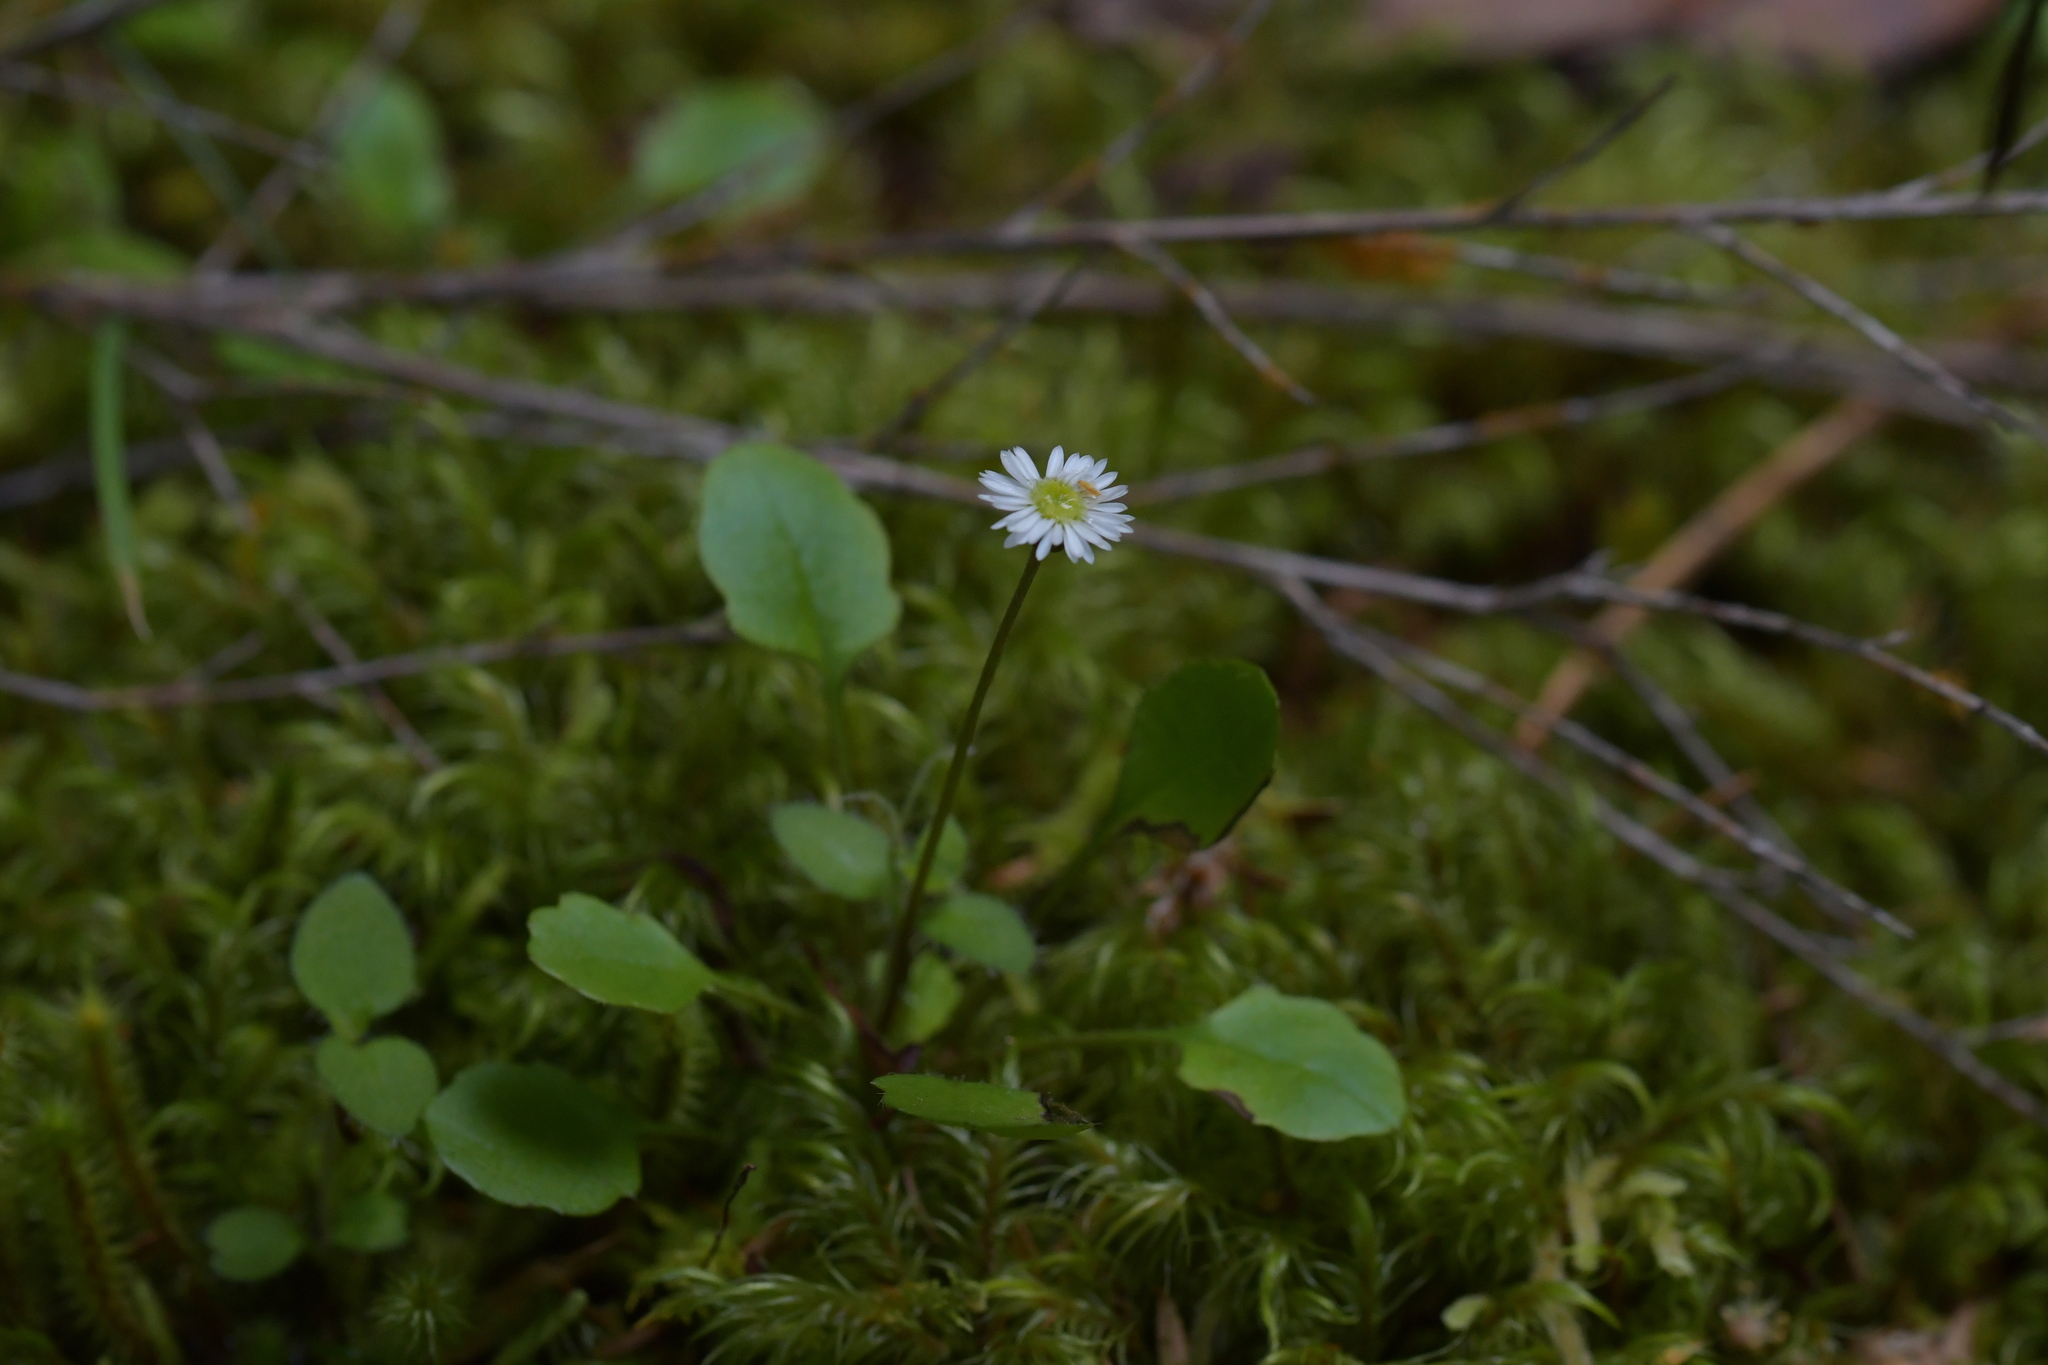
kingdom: Plantae
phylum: Tracheophyta
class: Magnoliopsida
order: Asterales
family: Asteraceae
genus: Lagenophora
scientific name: Lagenophora pumila
